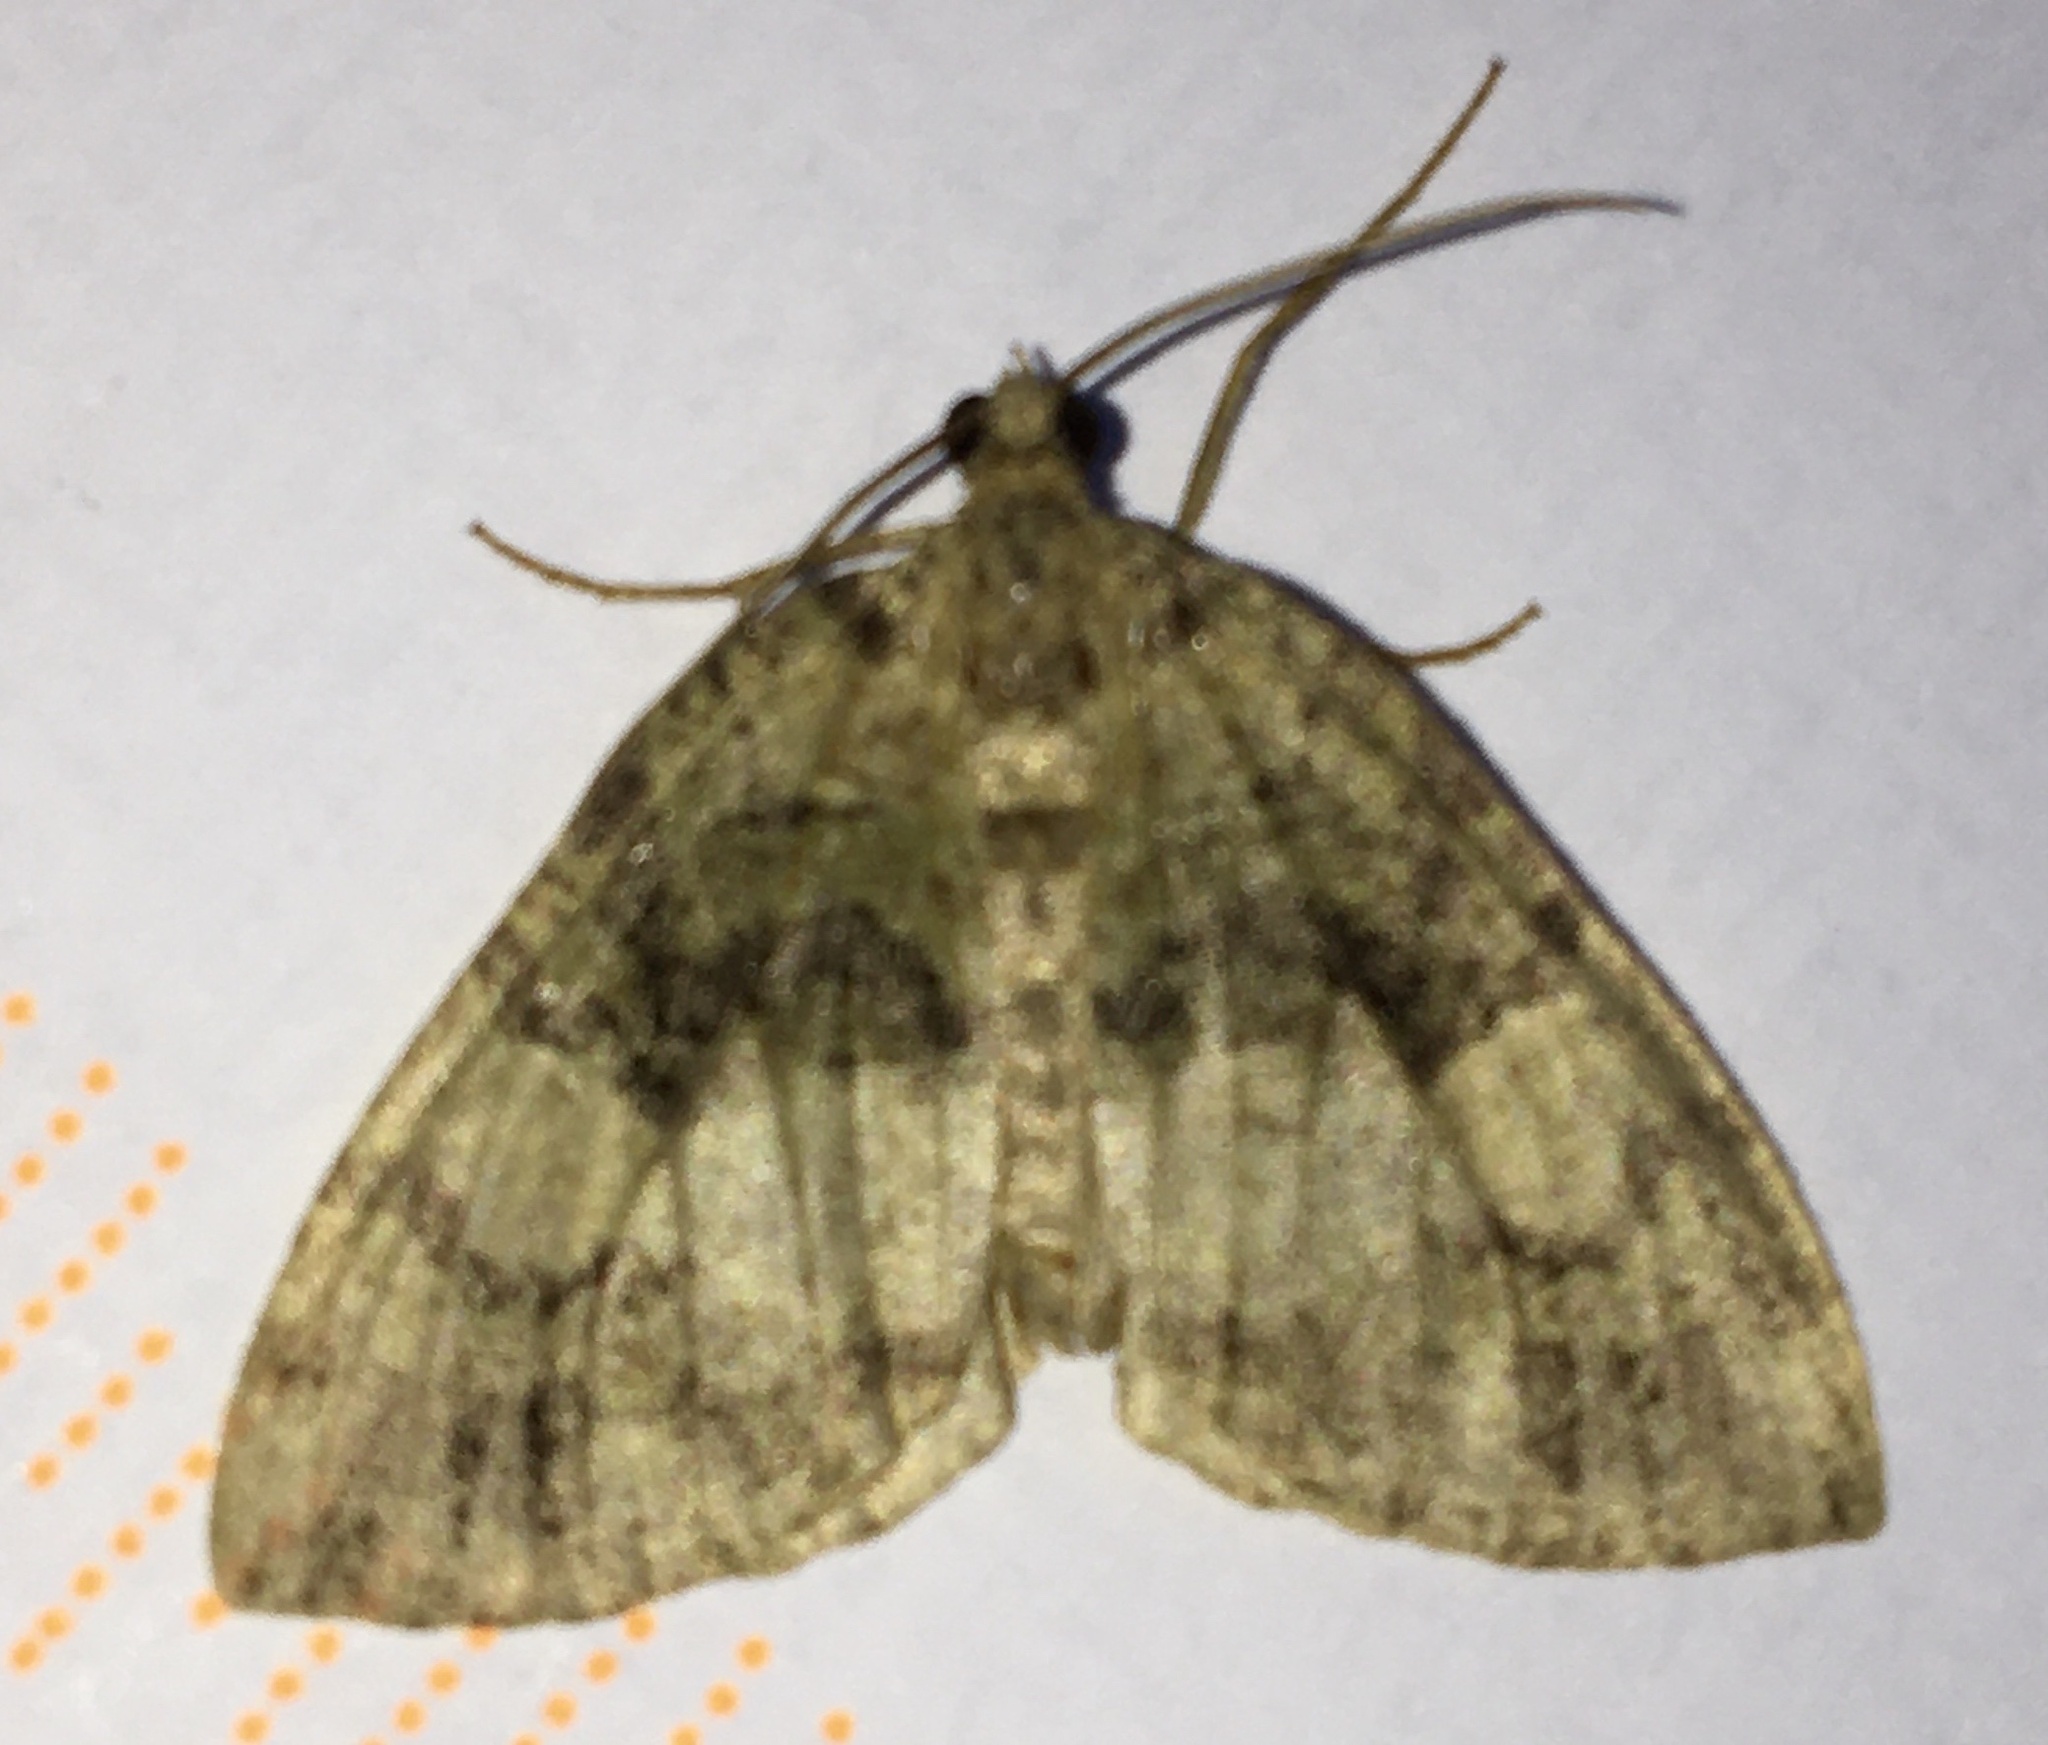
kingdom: Animalia
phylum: Arthropoda
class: Insecta
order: Lepidoptera
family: Geometridae
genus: Hydriomena
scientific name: Hydriomena furcata
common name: July highflyer
